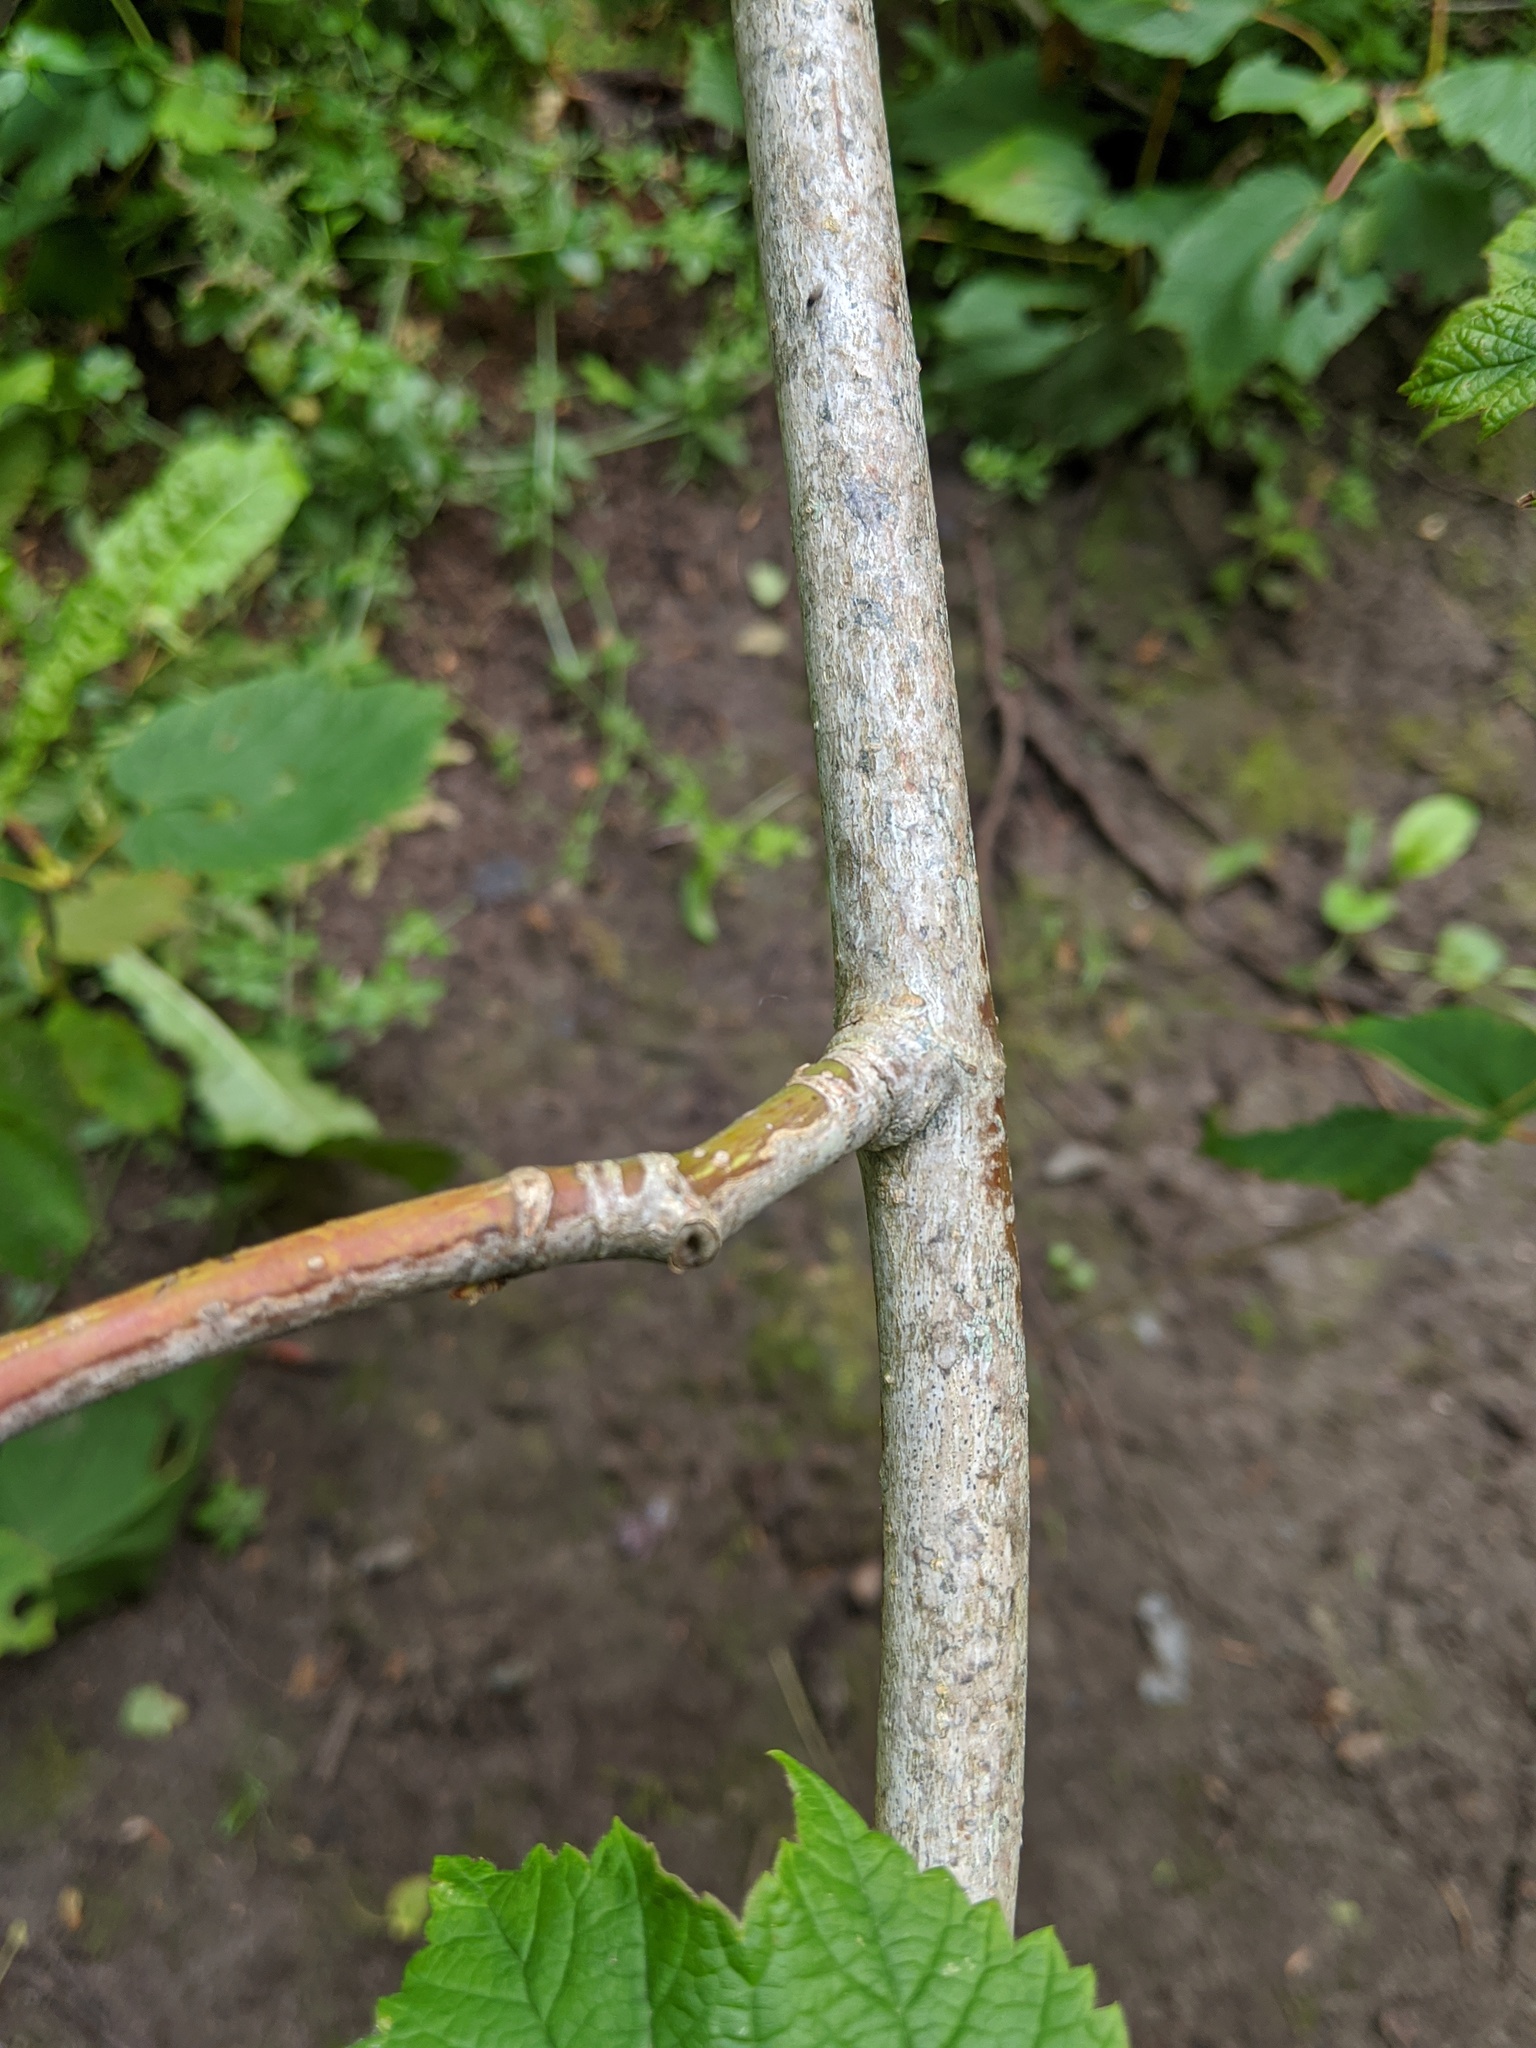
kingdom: Plantae
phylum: Tracheophyta
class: Magnoliopsida
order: Sapindales
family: Sapindaceae
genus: Acer
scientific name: Acer spicatum
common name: Mountain maple
